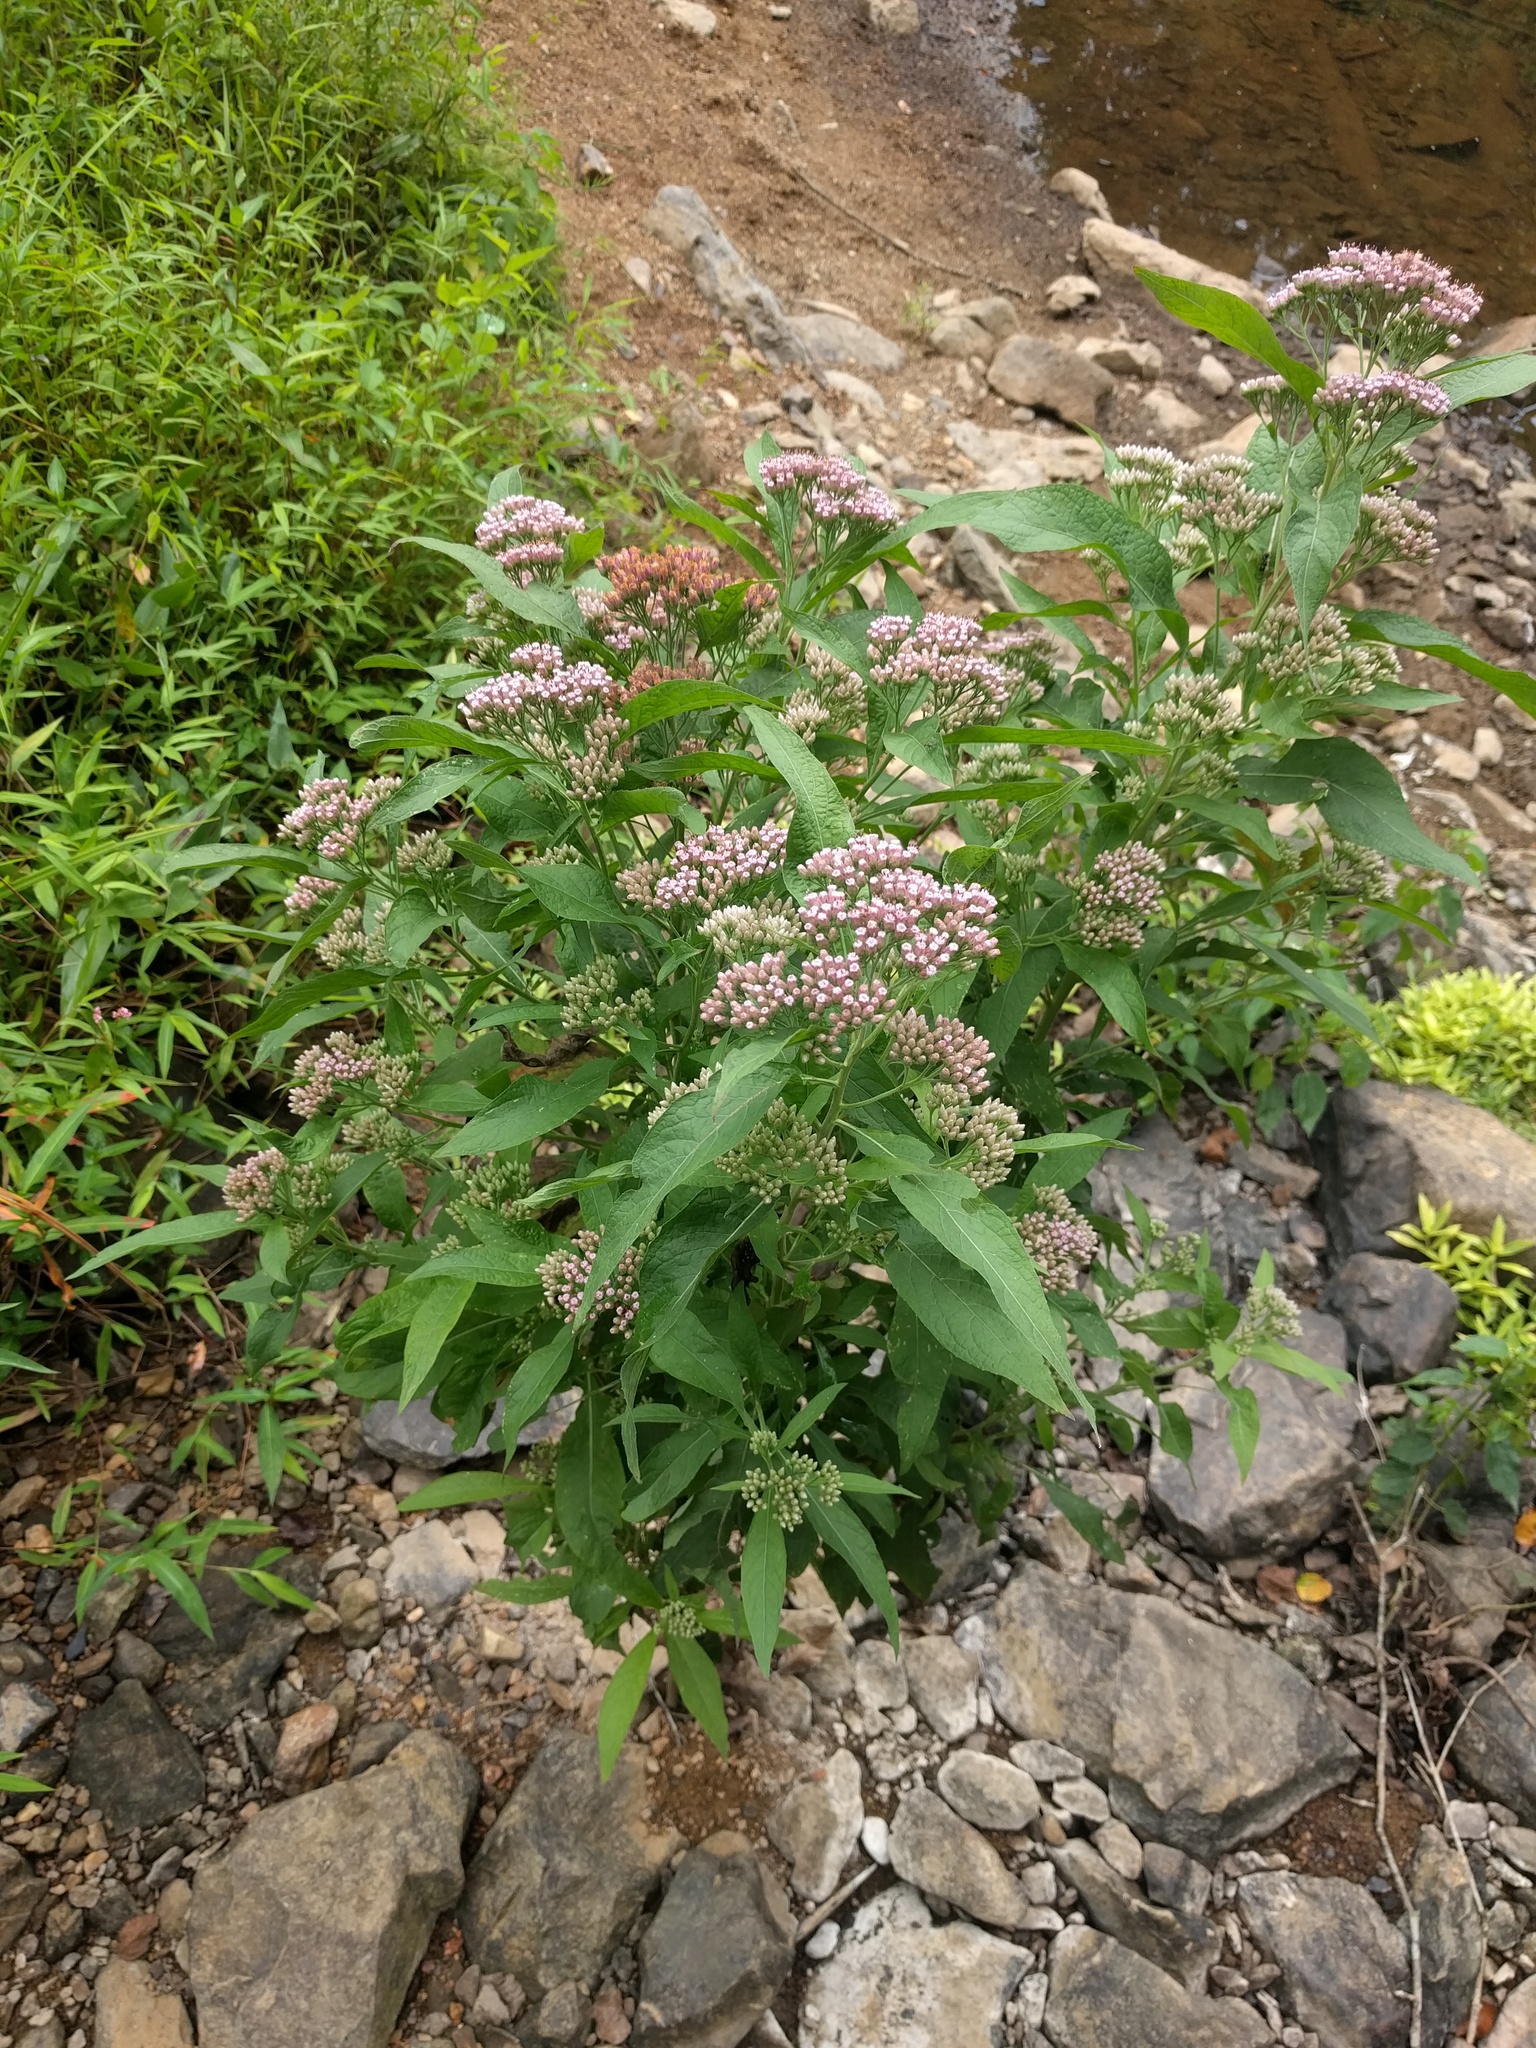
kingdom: Plantae
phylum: Tracheophyta
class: Magnoliopsida
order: Asterales
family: Asteraceae
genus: Pluchea
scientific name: Pluchea camphorata
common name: Camphor pluchea
